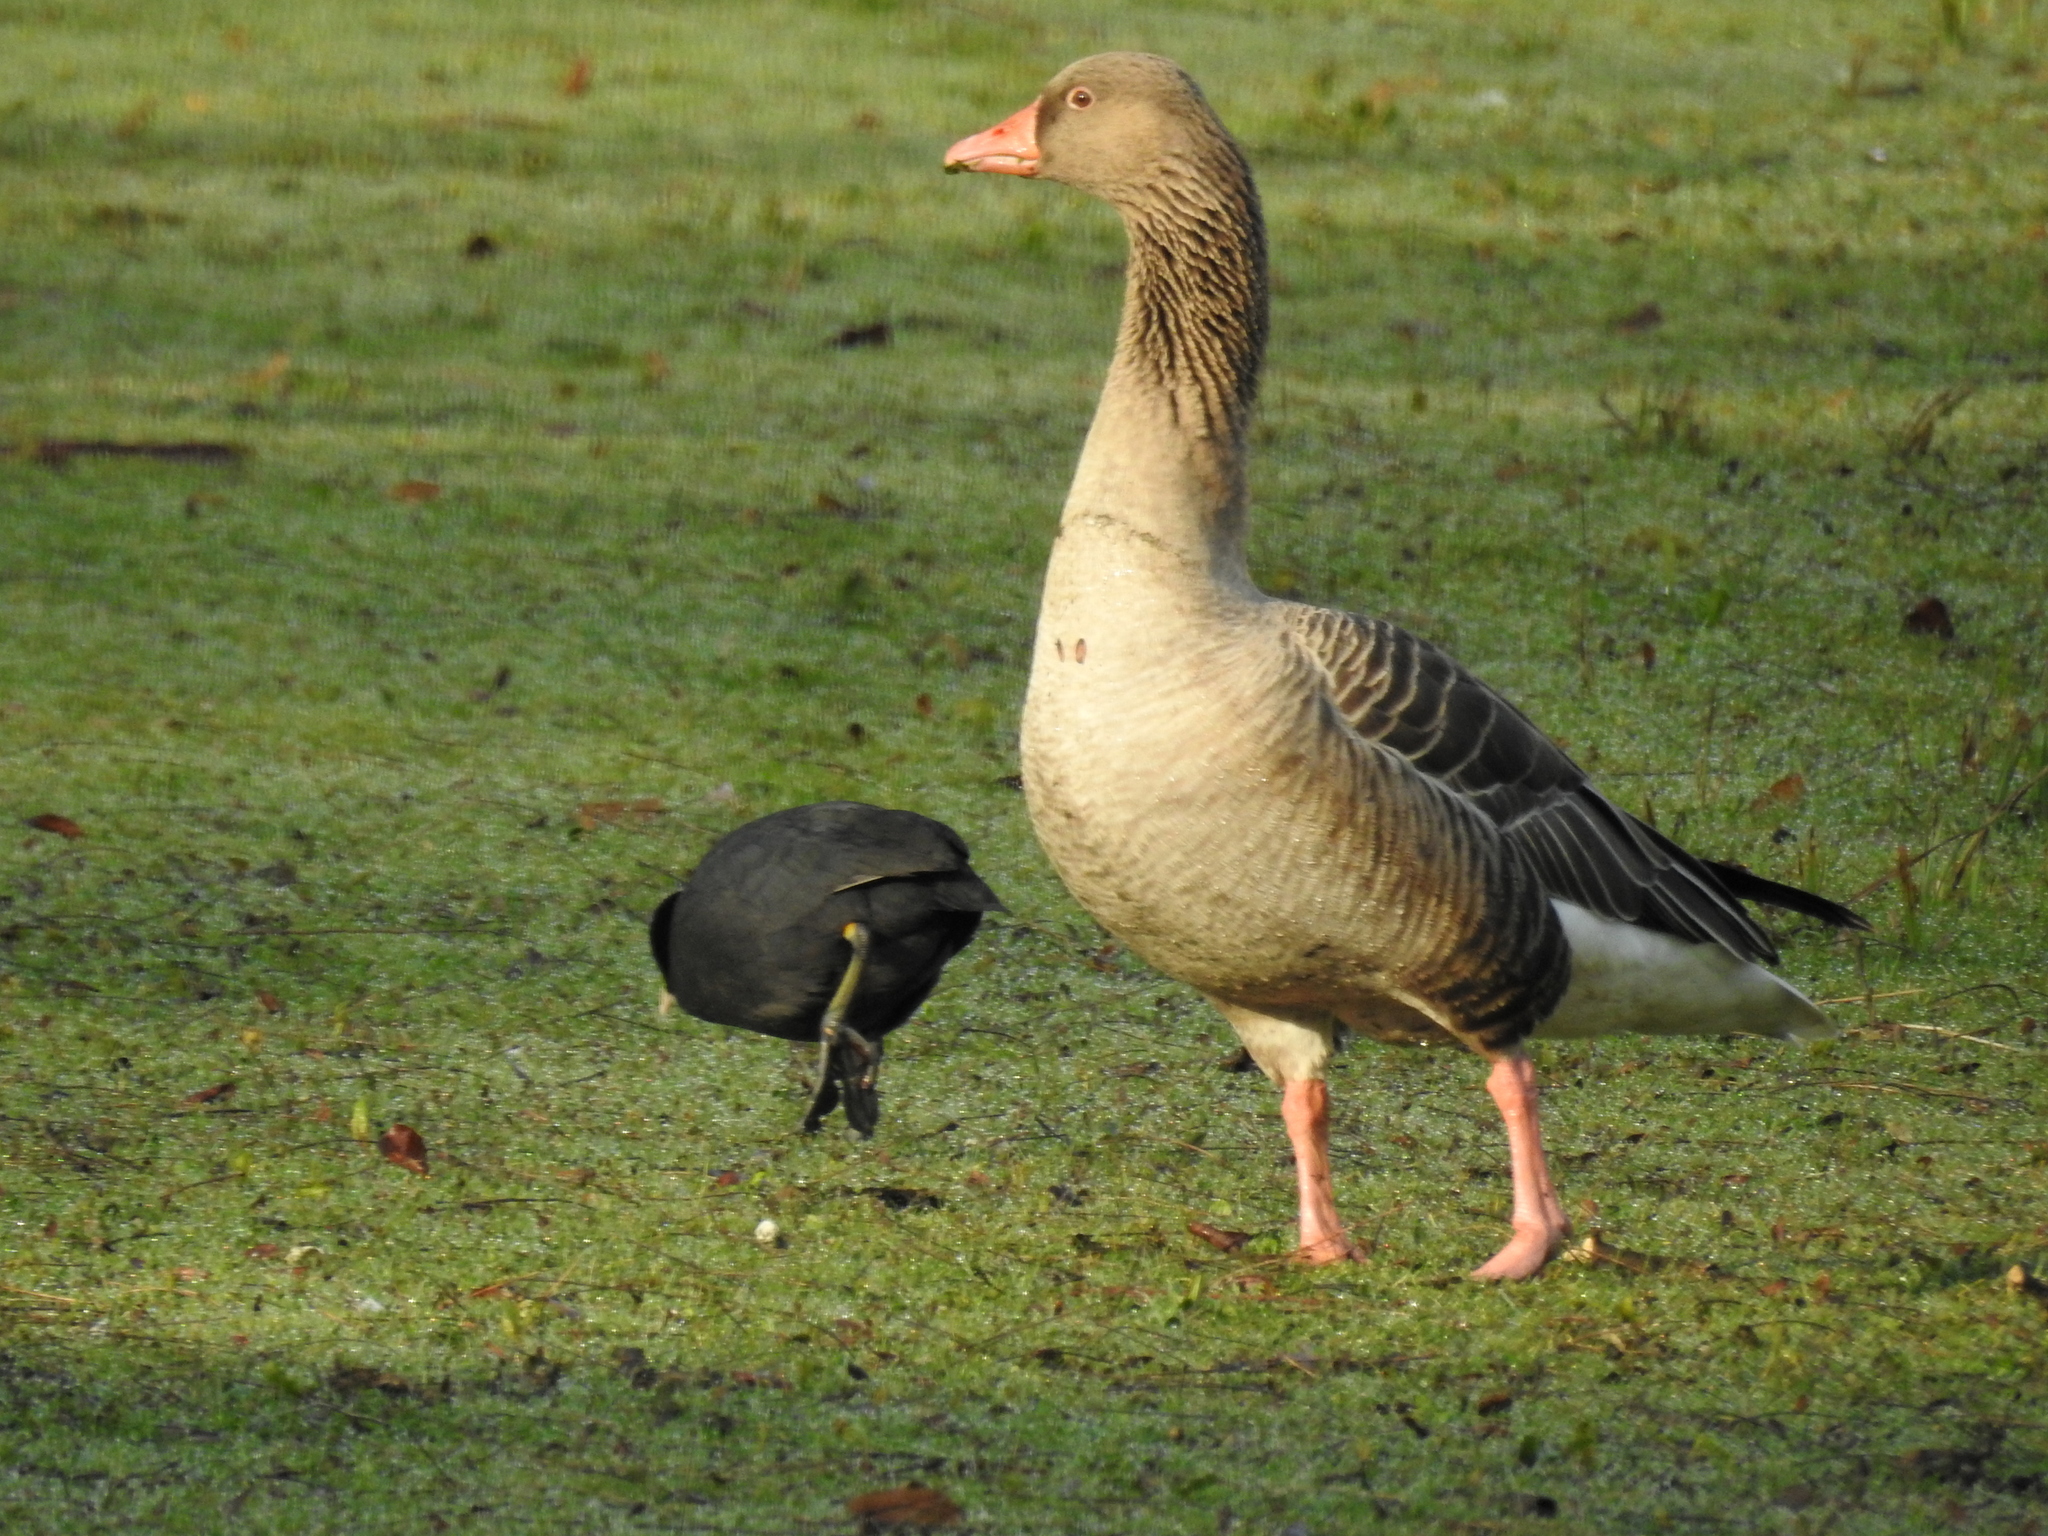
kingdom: Animalia
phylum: Chordata
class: Aves
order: Anseriformes
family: Anatidae
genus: Anser
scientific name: Anser anser
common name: Greylag goose
